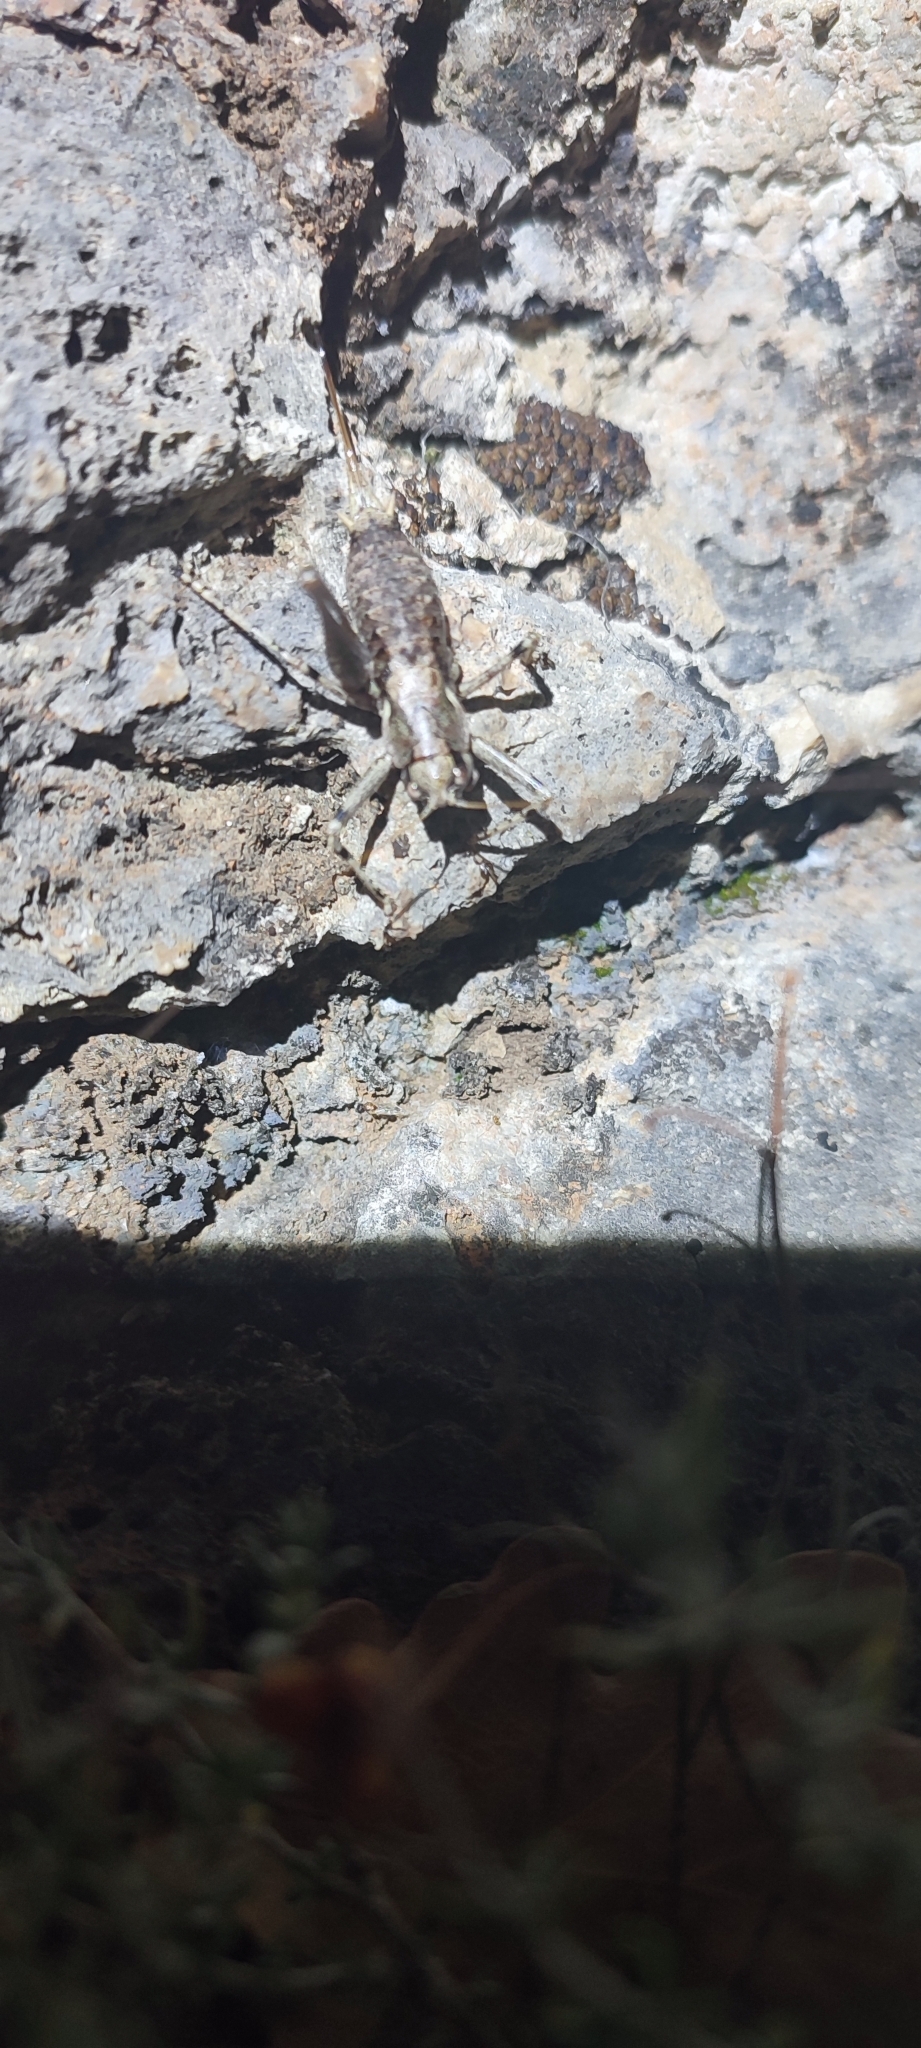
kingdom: Animalia
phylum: Arthropoda
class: Insecta
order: Orthoptera
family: Tettigoniidae
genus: Antaxius
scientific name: Antaxius pedestris
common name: Common mountain bush-cricket
